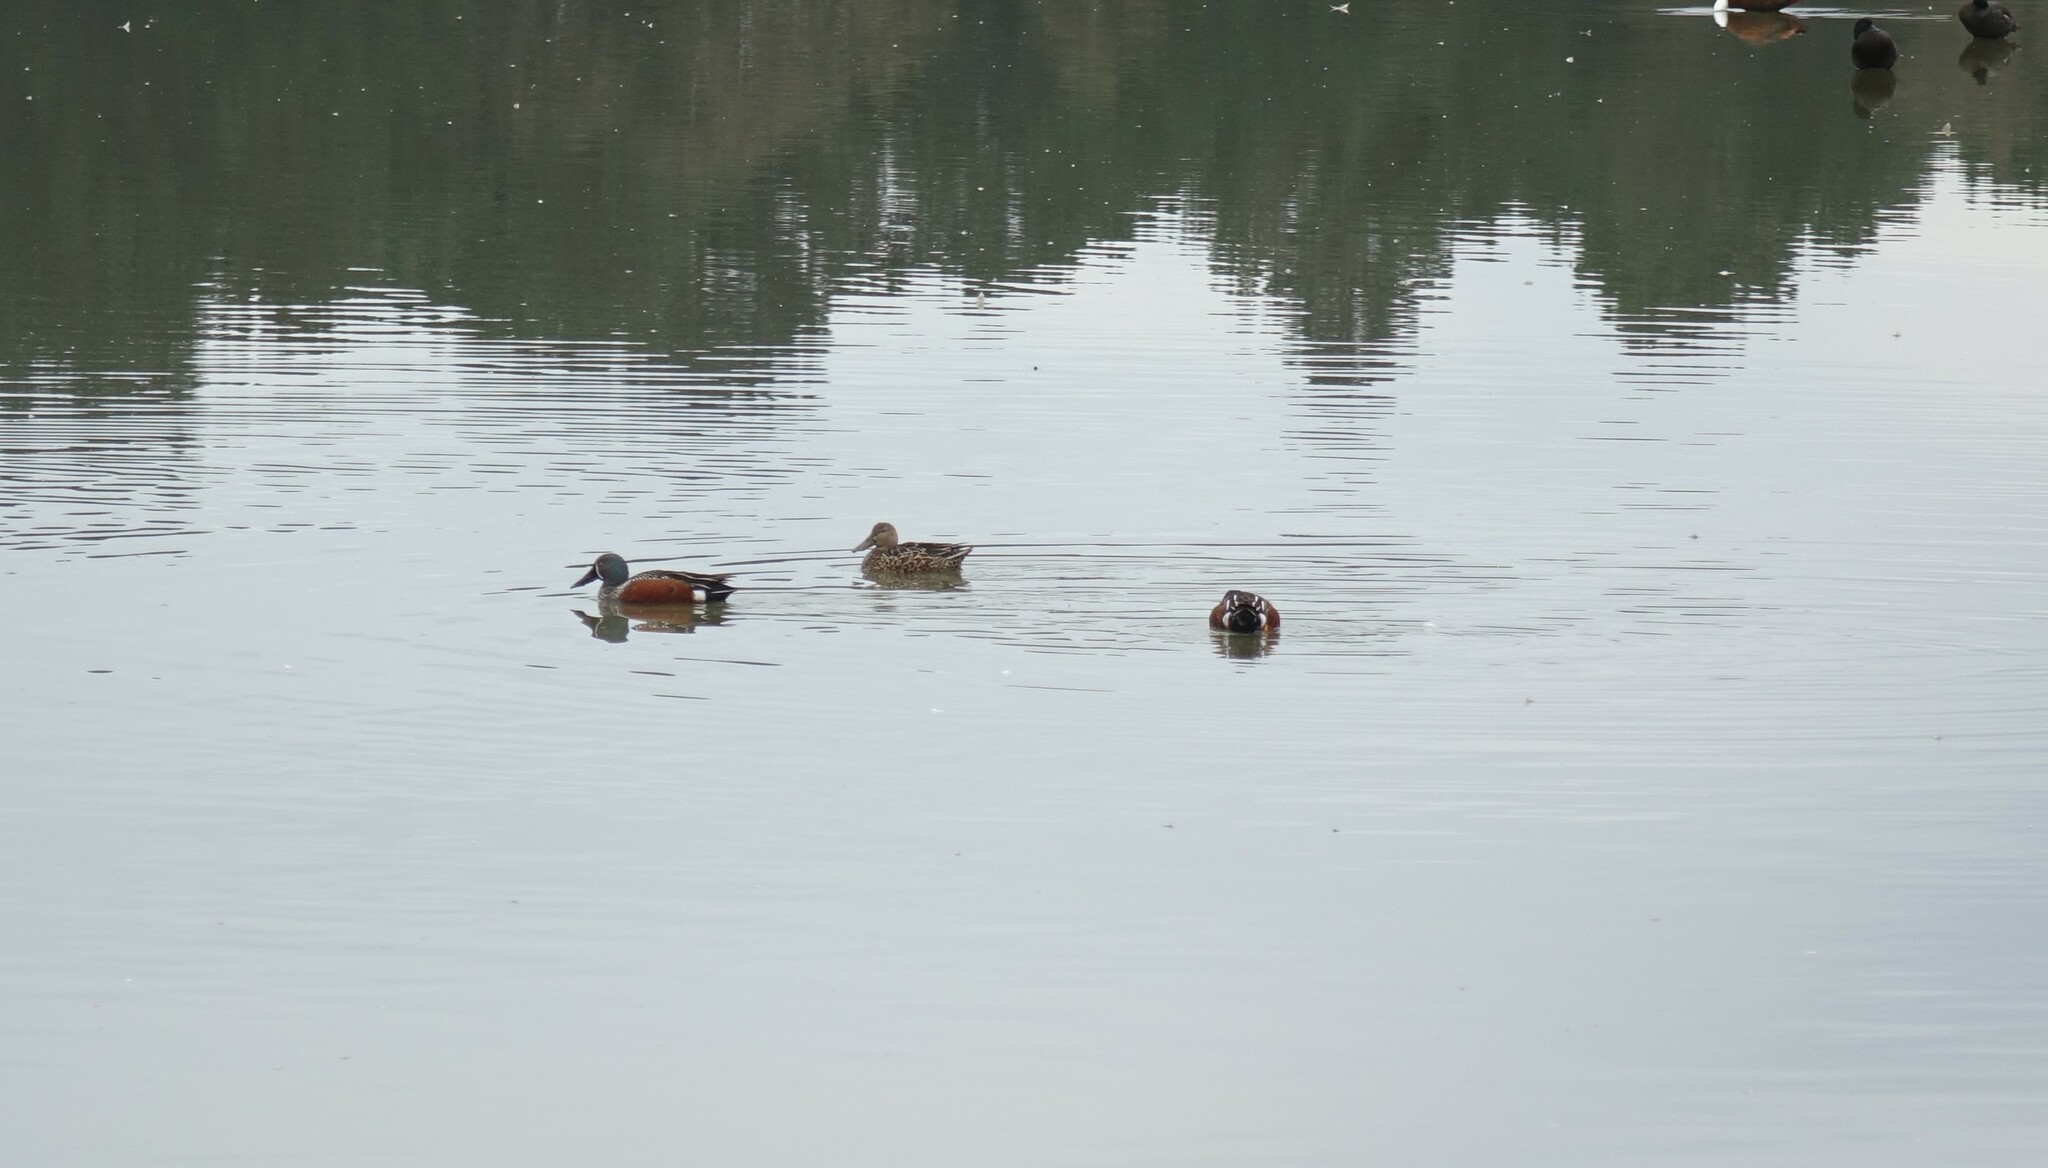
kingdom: Animalia
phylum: Chordata
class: Aves
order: Anseriformes
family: Anatidae
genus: Spatula
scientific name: Spatula rhynchotis
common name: Australian shoveler
